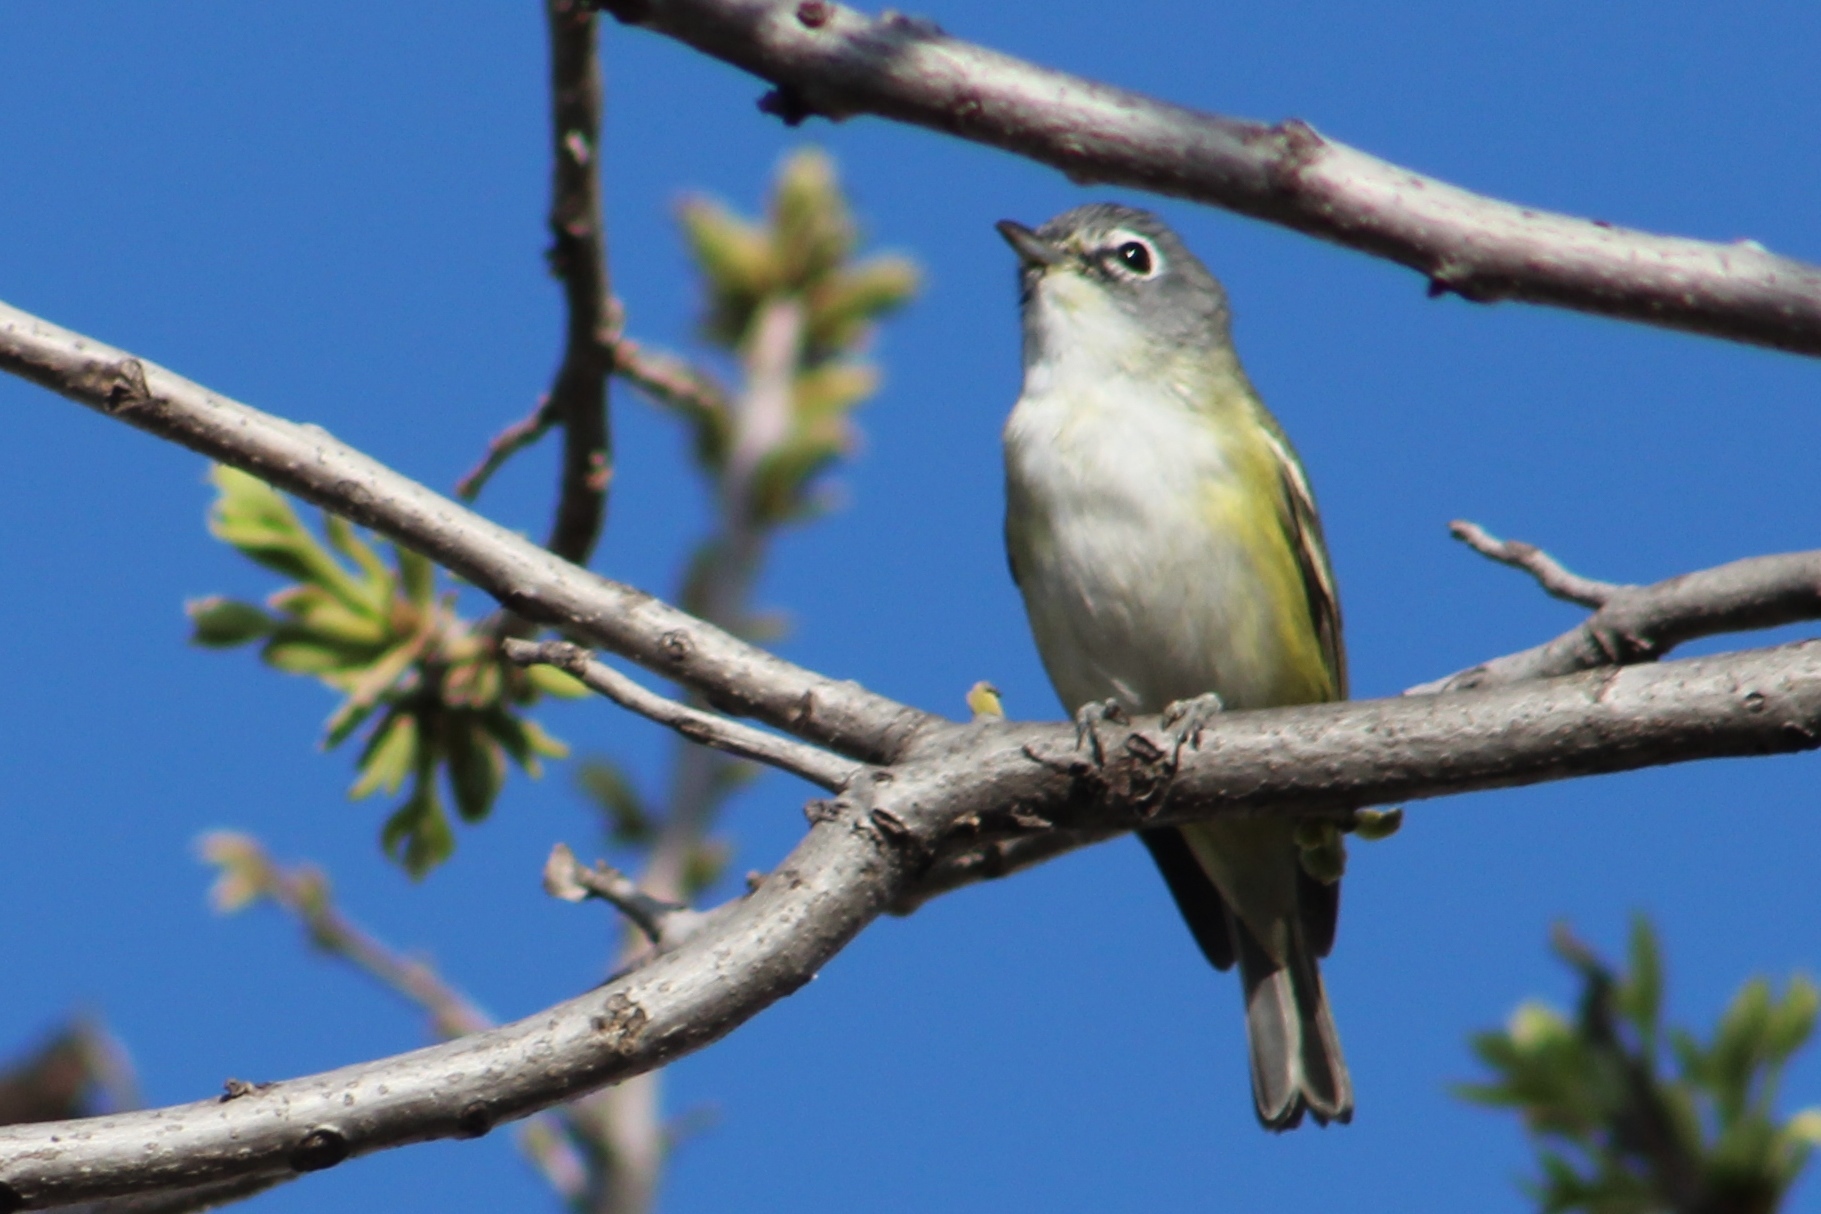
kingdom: Animalia
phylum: Chordata
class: Aves
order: Passeriformes
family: Vireonidae
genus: Vireo
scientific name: Vireo solitarius
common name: Blue-headed vireo
